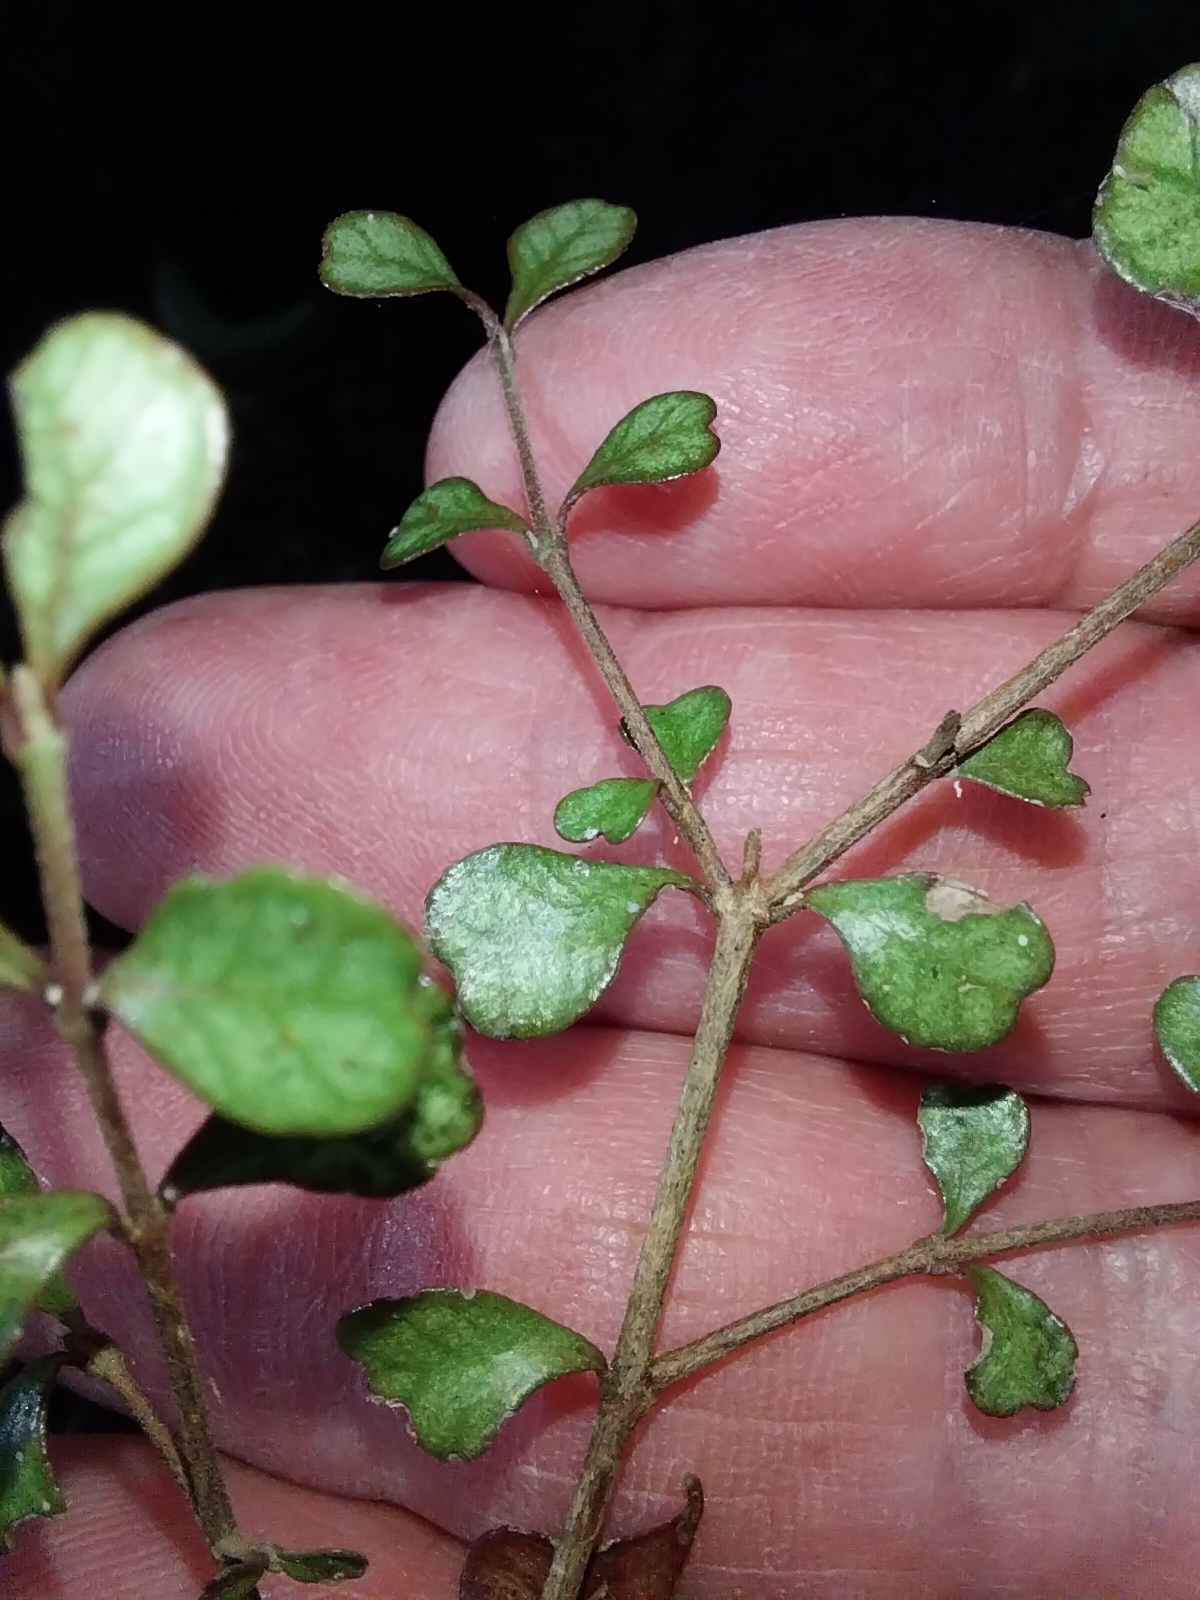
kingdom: Plantae
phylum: Tracheophyta
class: Magnoliopsida
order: Myrtales
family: Myrtaceae
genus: Lophomyrtus
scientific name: Lophomyrtus obcordata
